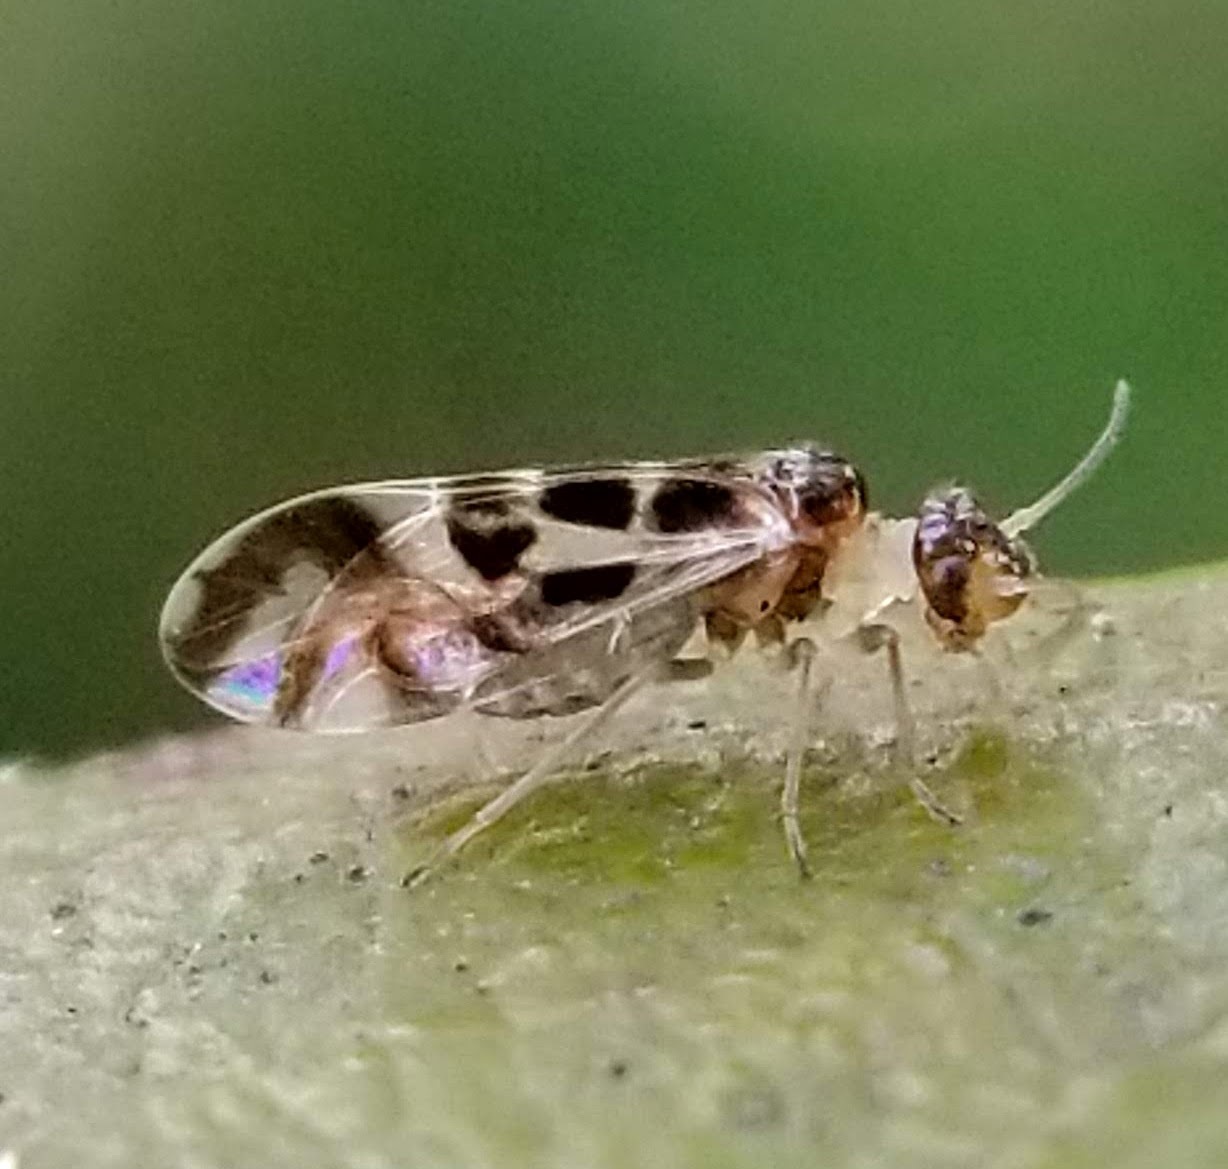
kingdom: Animalia
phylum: Arthropoda
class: Insecta
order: Psocodea
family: Stenopsocidae
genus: Graphopsocus
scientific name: Graphopsocus cruciatus
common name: Lizard bark louse
